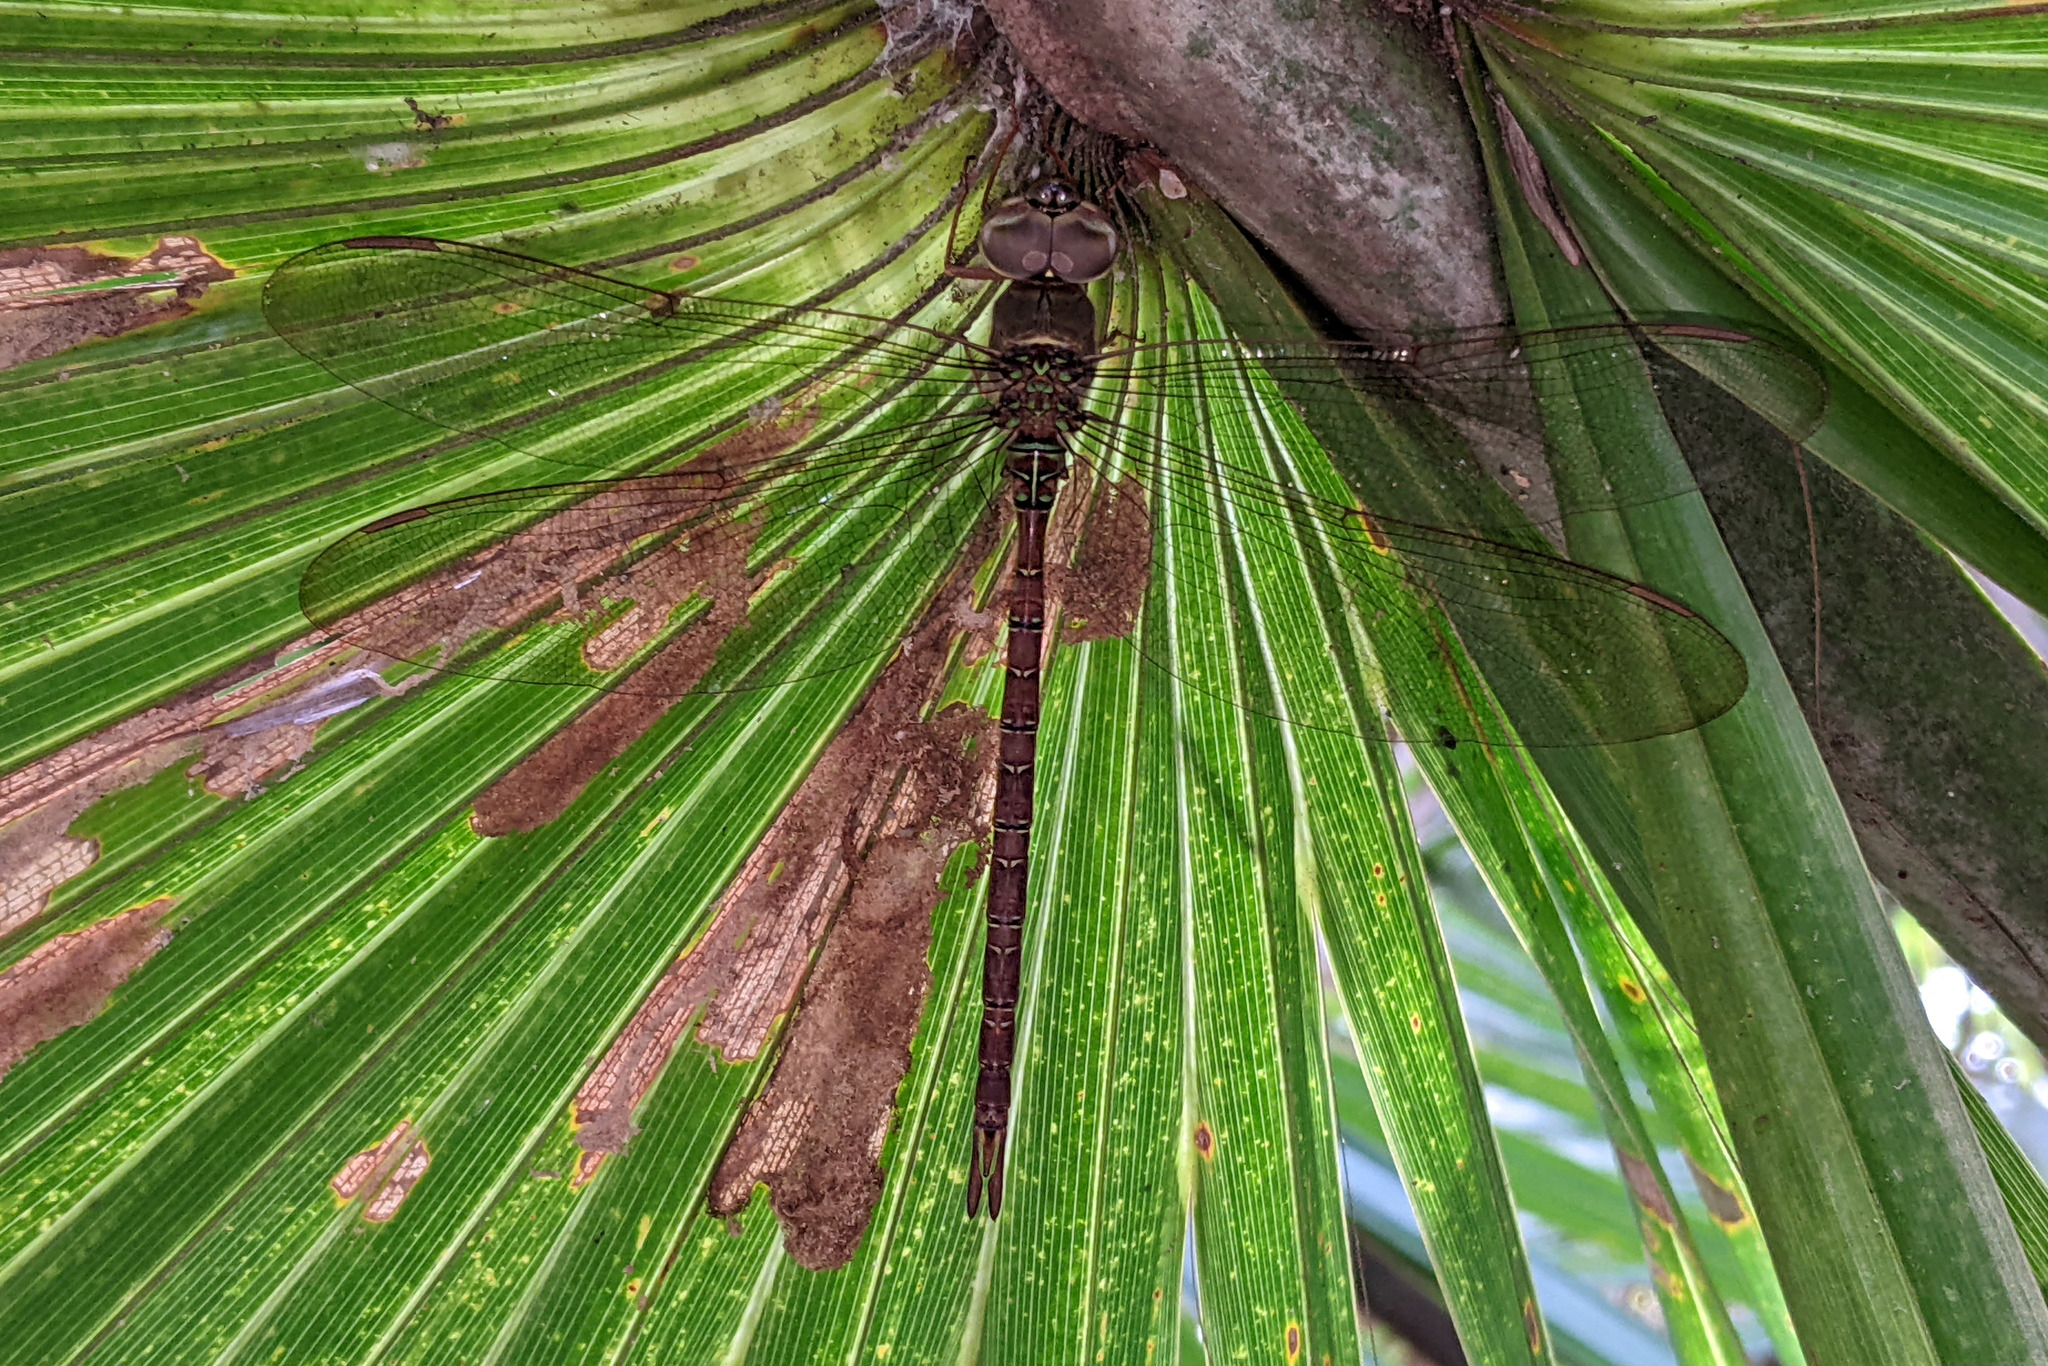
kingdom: Animalia
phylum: Arthropoda
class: Insecta
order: Odonata
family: Aeshnidae
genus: Gynacantha
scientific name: Gynacantha nervosa
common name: Twilight darner
